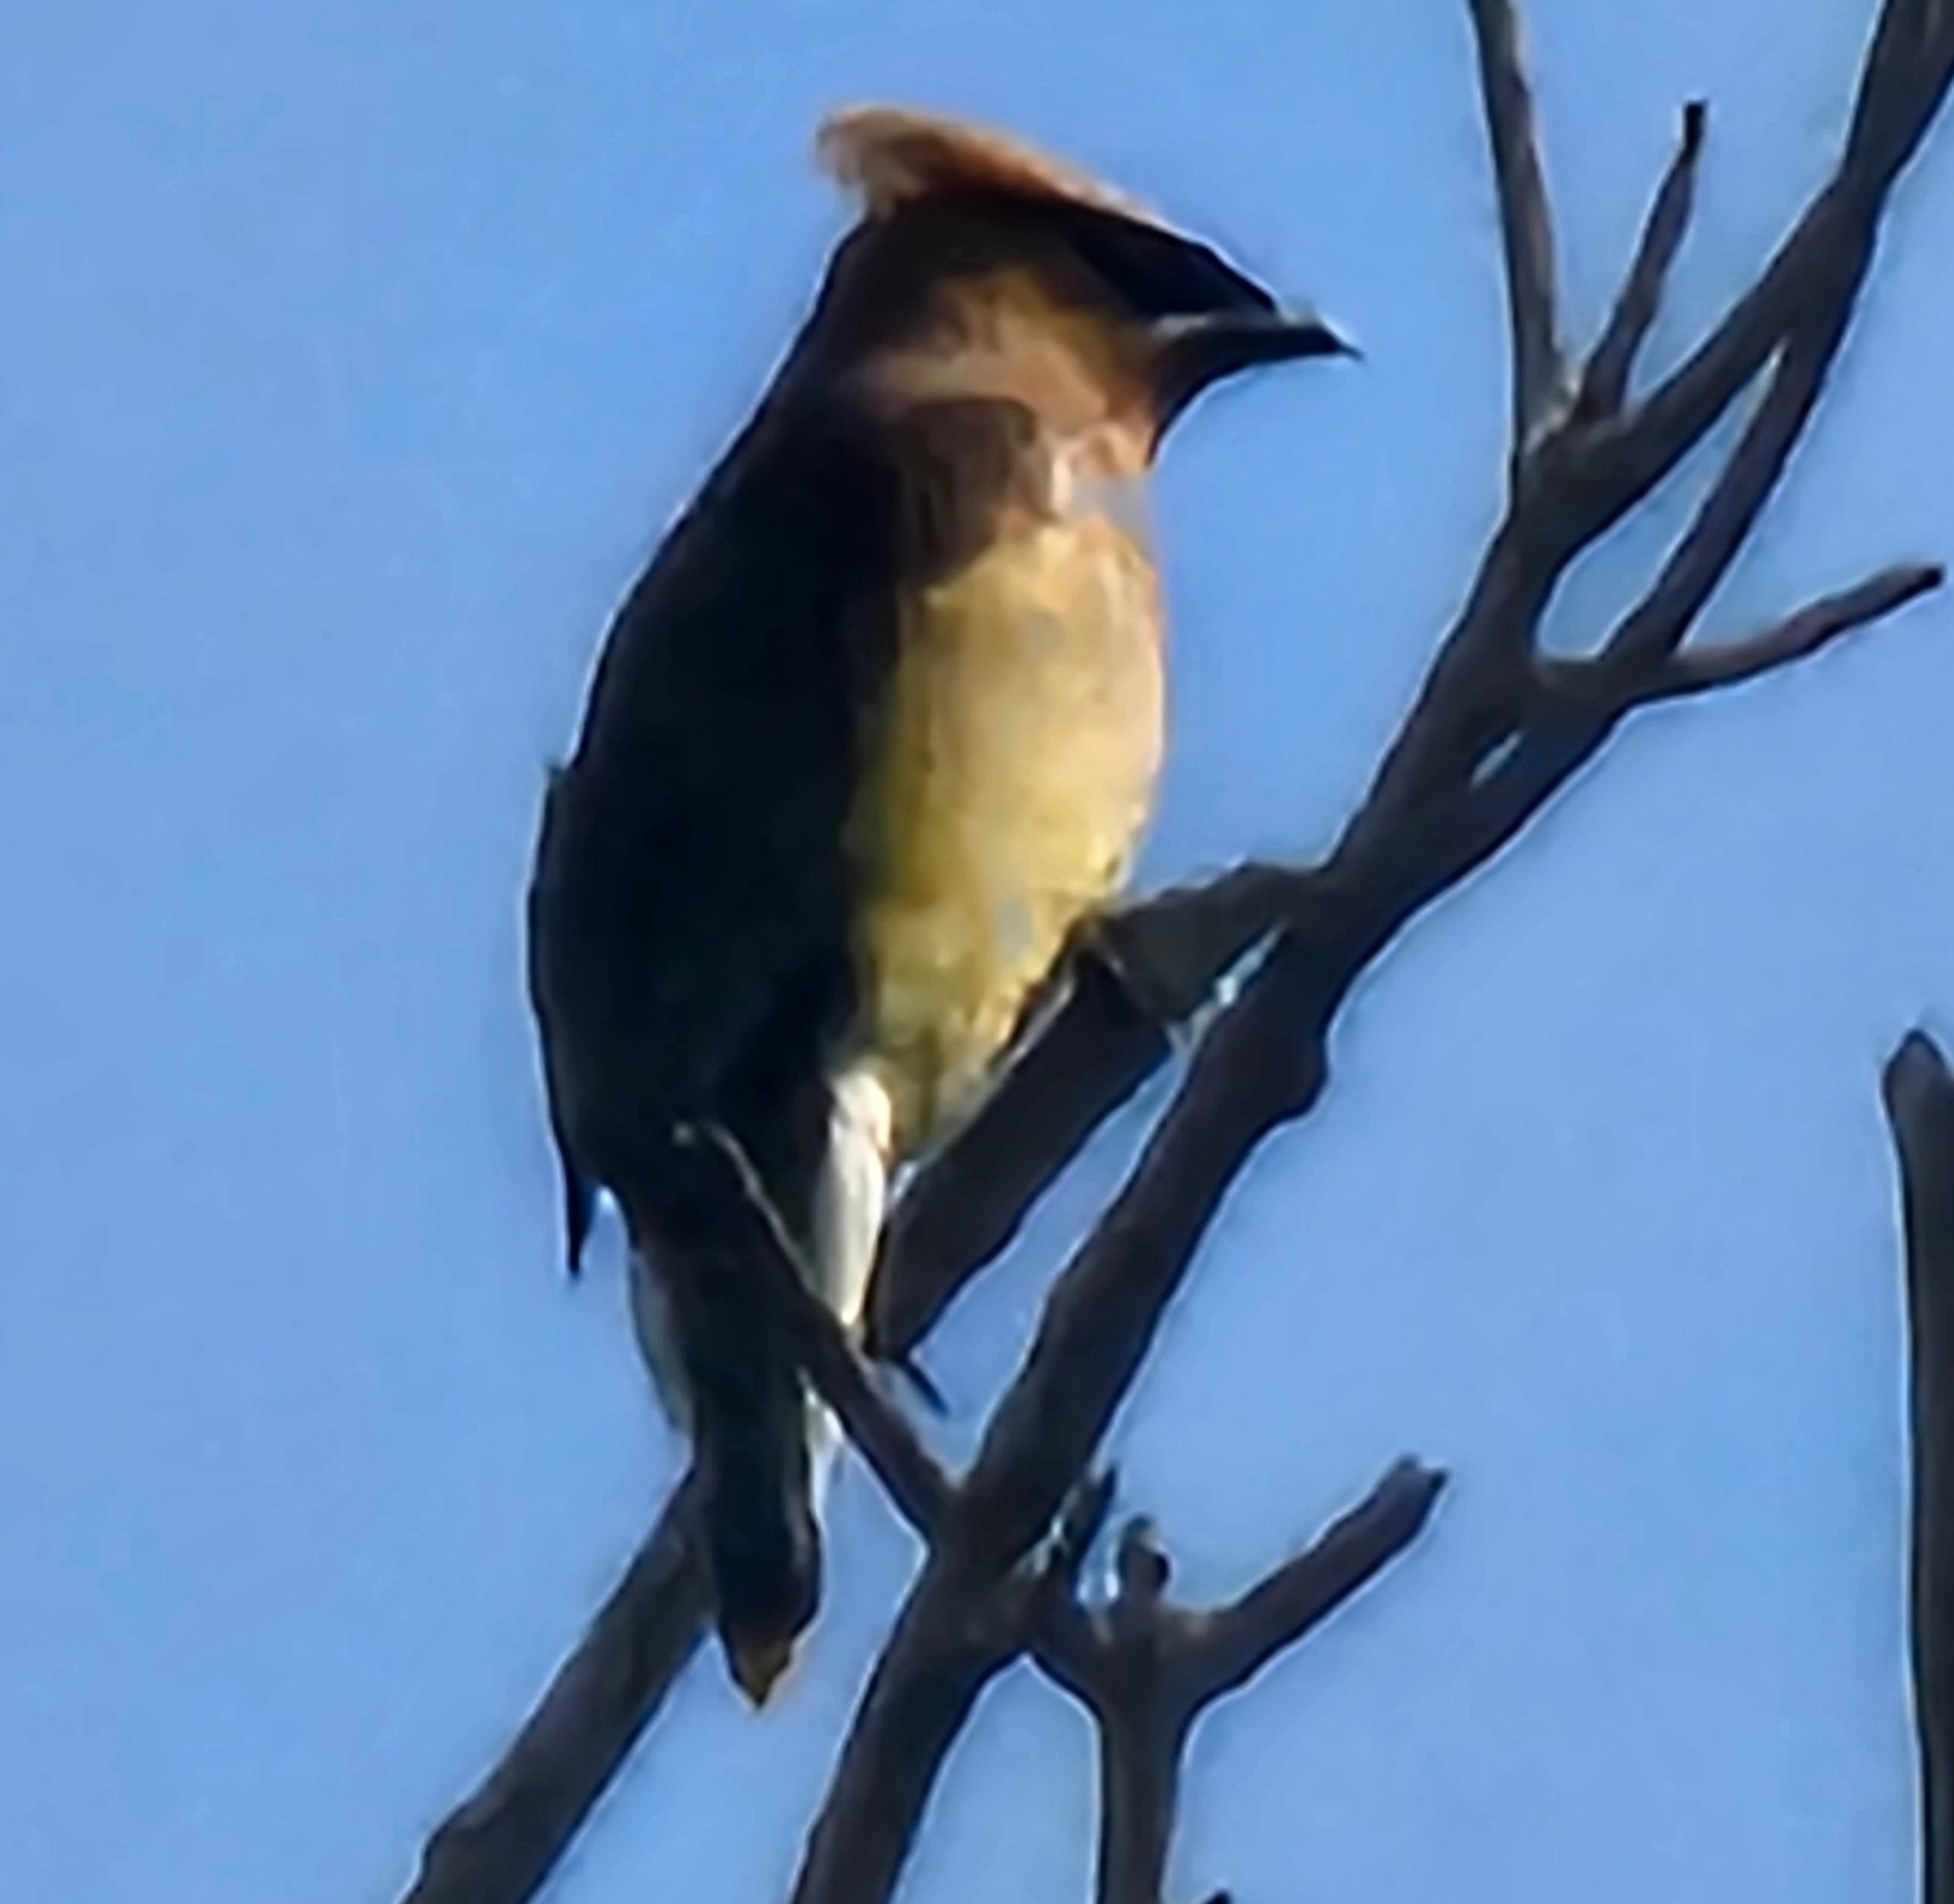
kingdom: Animalia
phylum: Chordata
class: Aves
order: Passeriformes
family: Bombycillidae
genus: Bombycilla
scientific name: Bombycilla cedrorum
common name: Cedar waxwing
